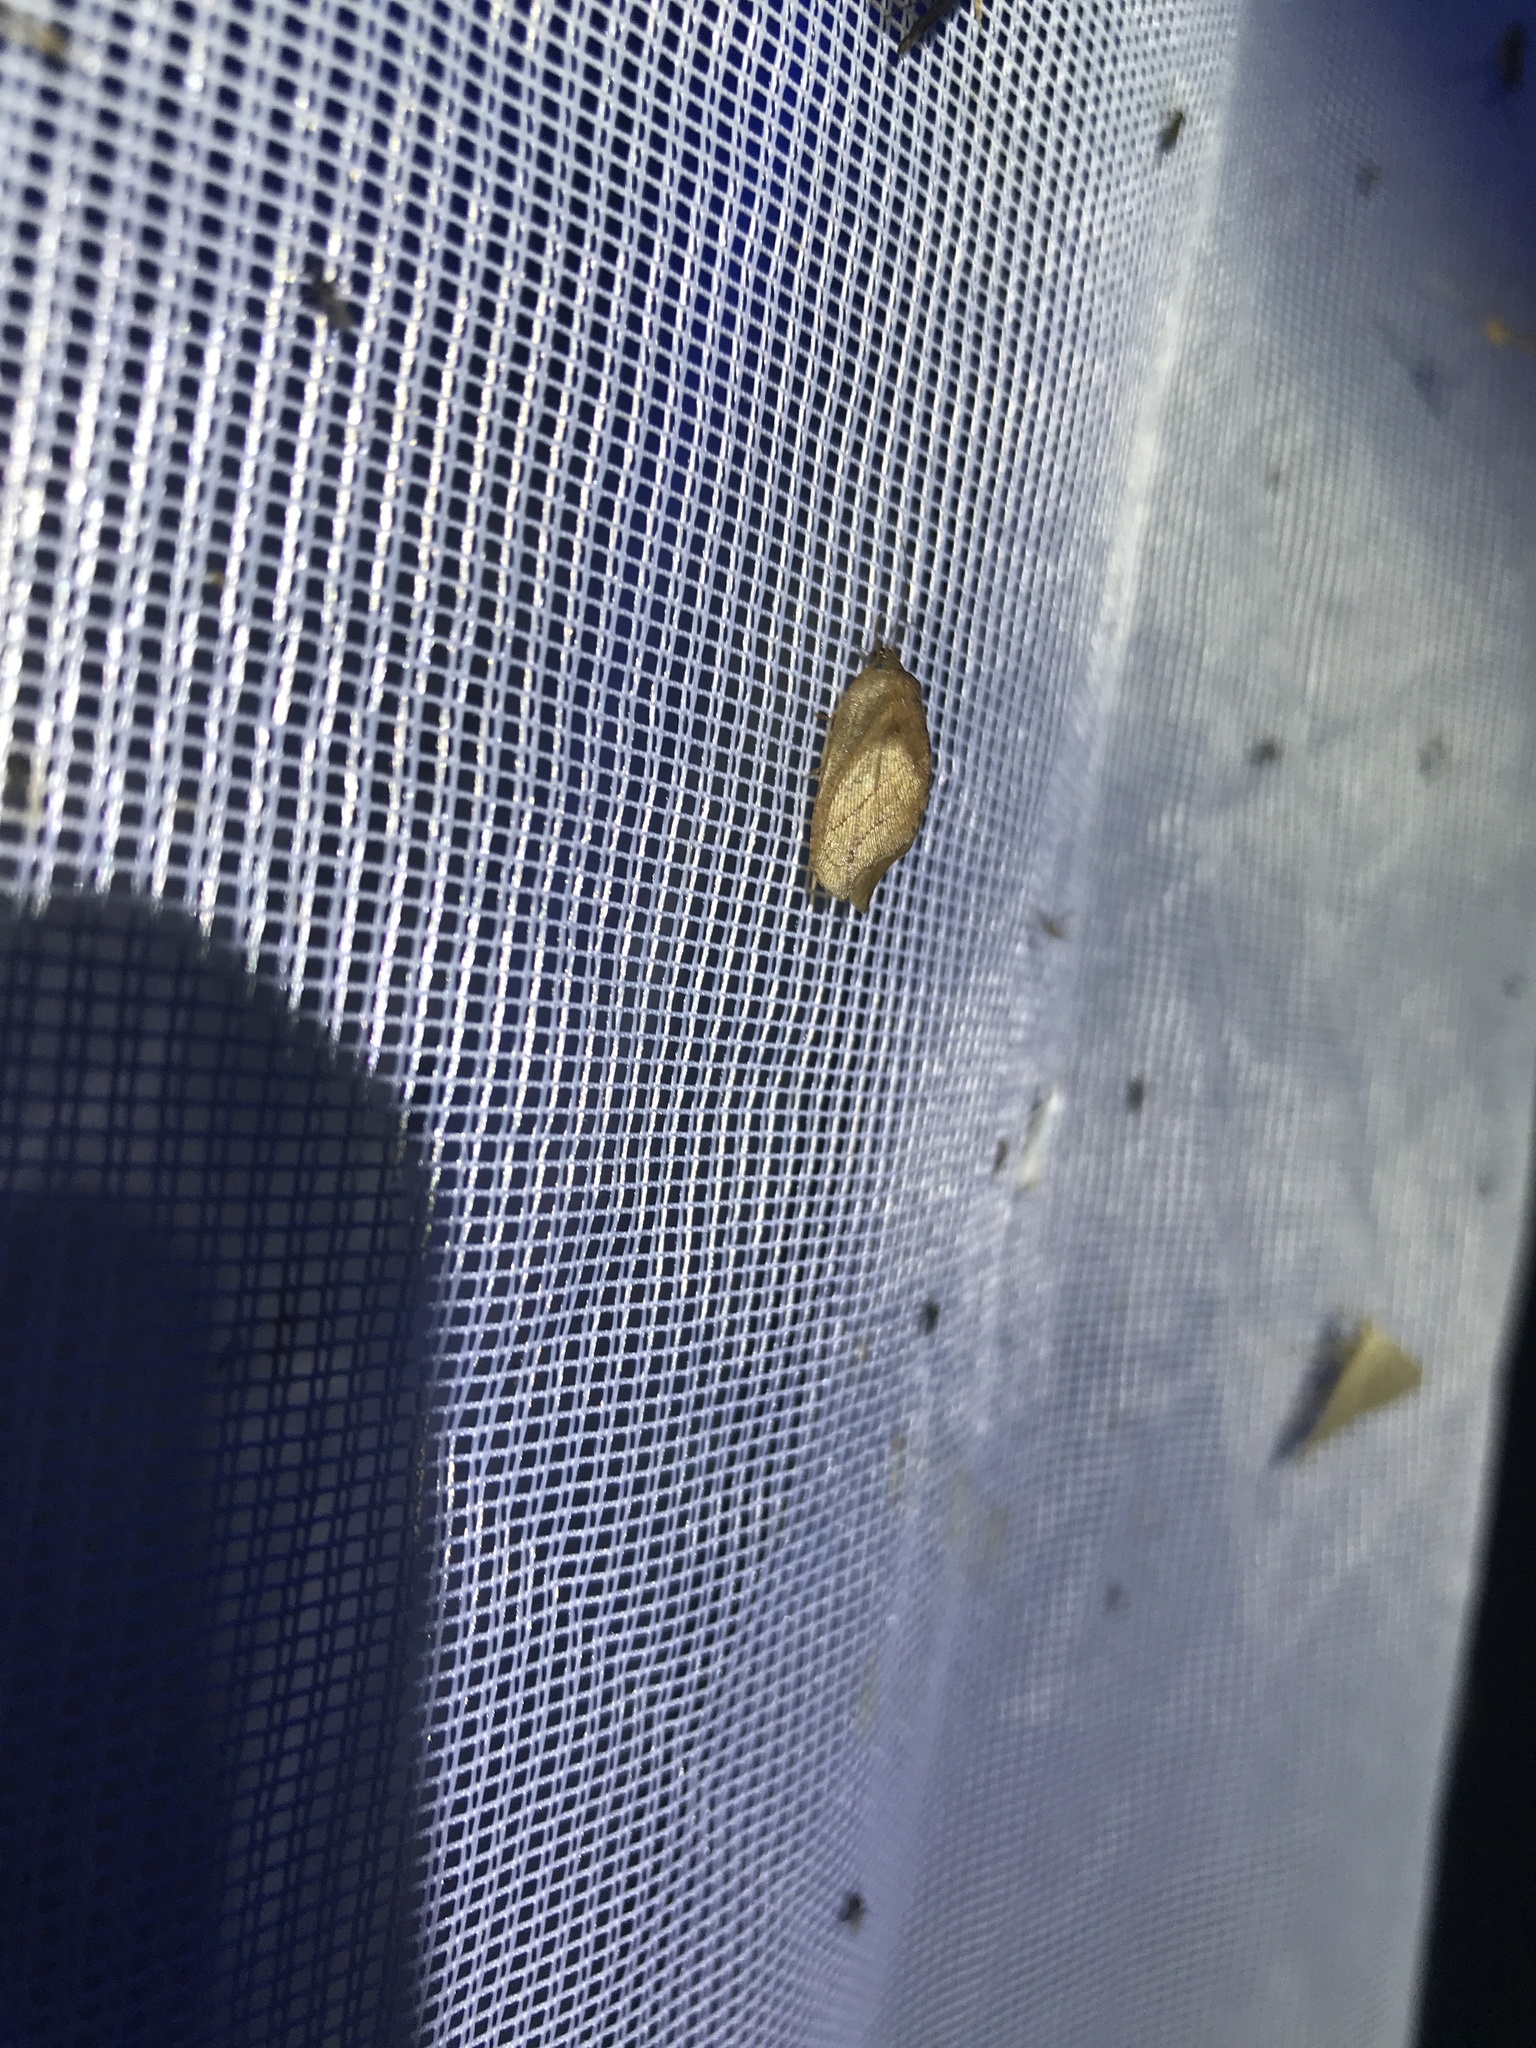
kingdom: Animalia
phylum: Arthropoda
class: Insecta
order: Neuroptera
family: Hemerobiidae
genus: Drepanepteryx
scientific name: Drepanepteryx phalaenoides
